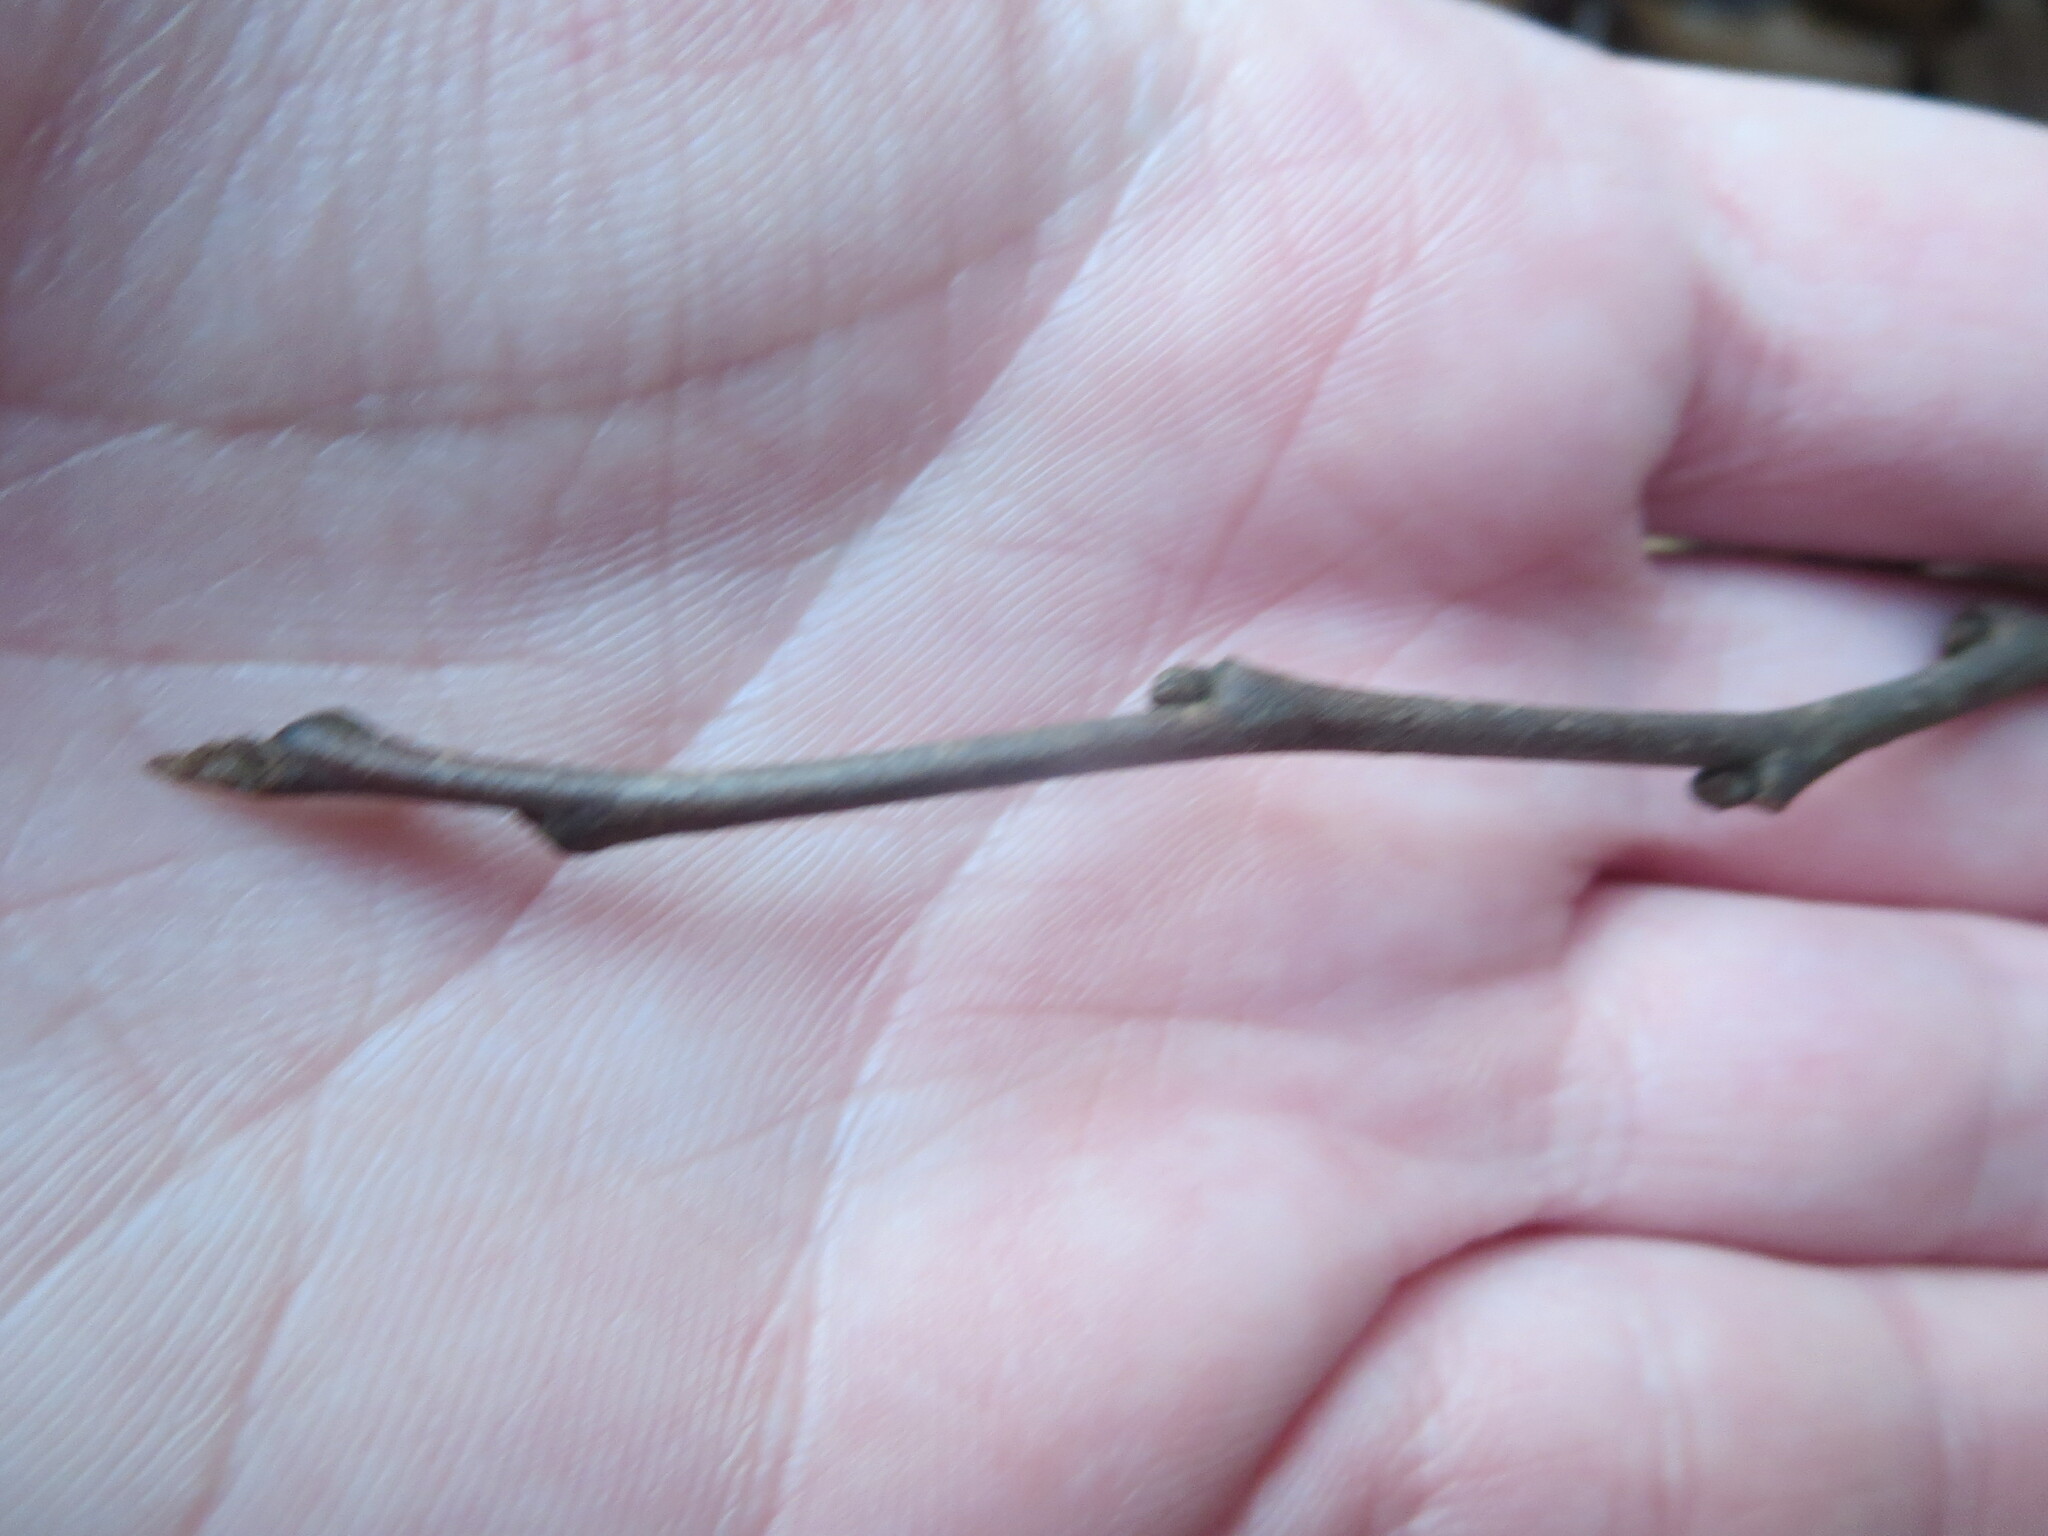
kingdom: Plantae
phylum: Tracheophyta
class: Magnoliopsida
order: Magnoliales
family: Annonaceae
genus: Asimina
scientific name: Asimina parviflora
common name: Dwarf pawpaw
